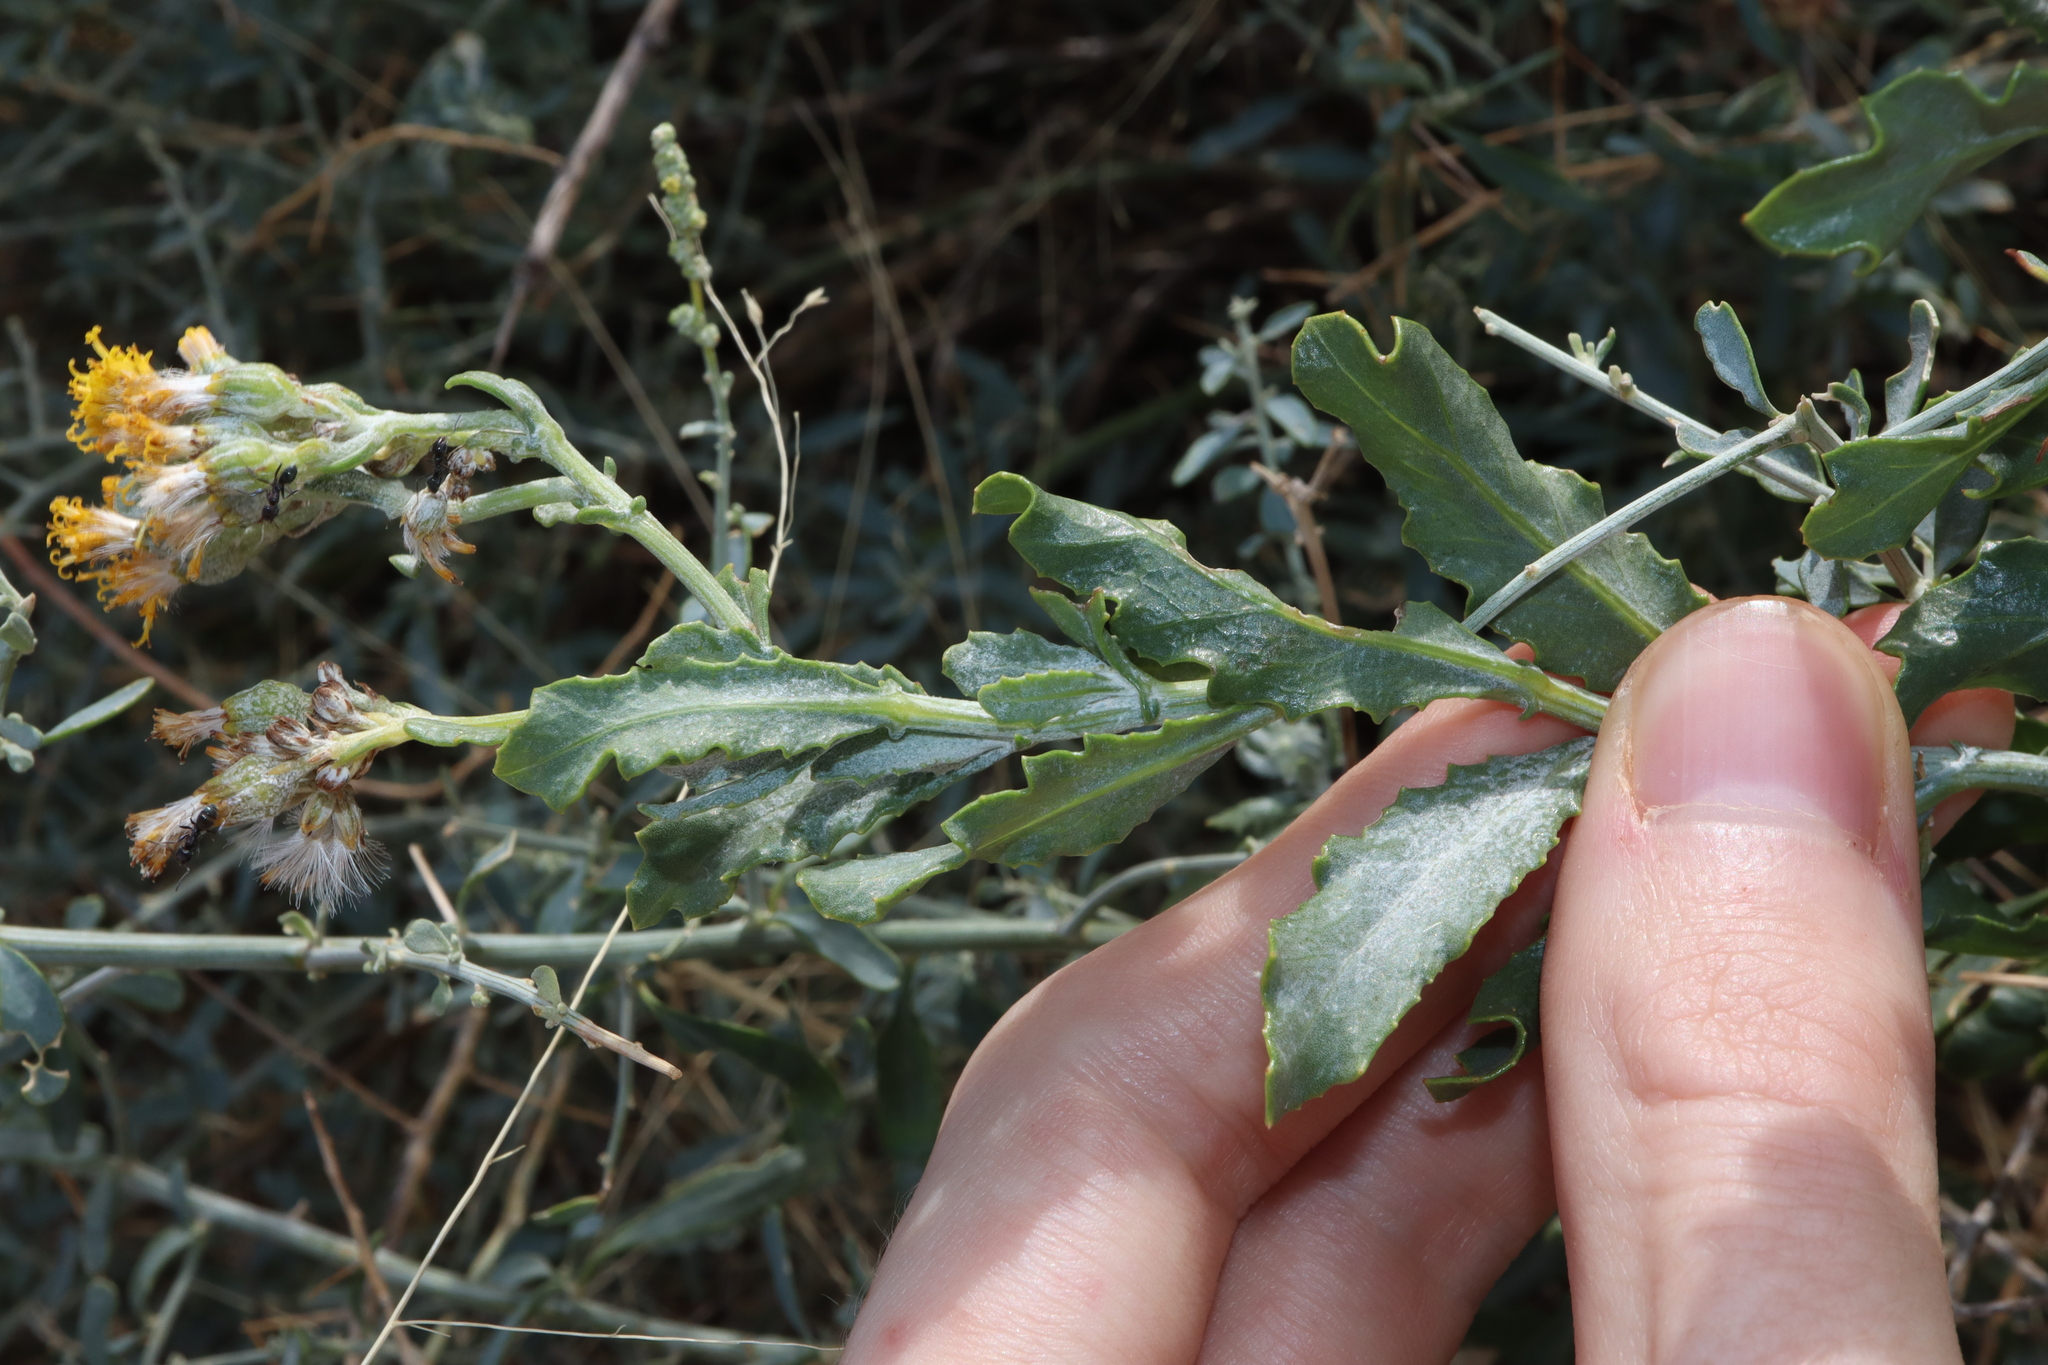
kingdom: Plantae
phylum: Tracheophyta
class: Magnoliopsida
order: Asterales
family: Asteraceae
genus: Senecio
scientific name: Senecio lanibracteus
